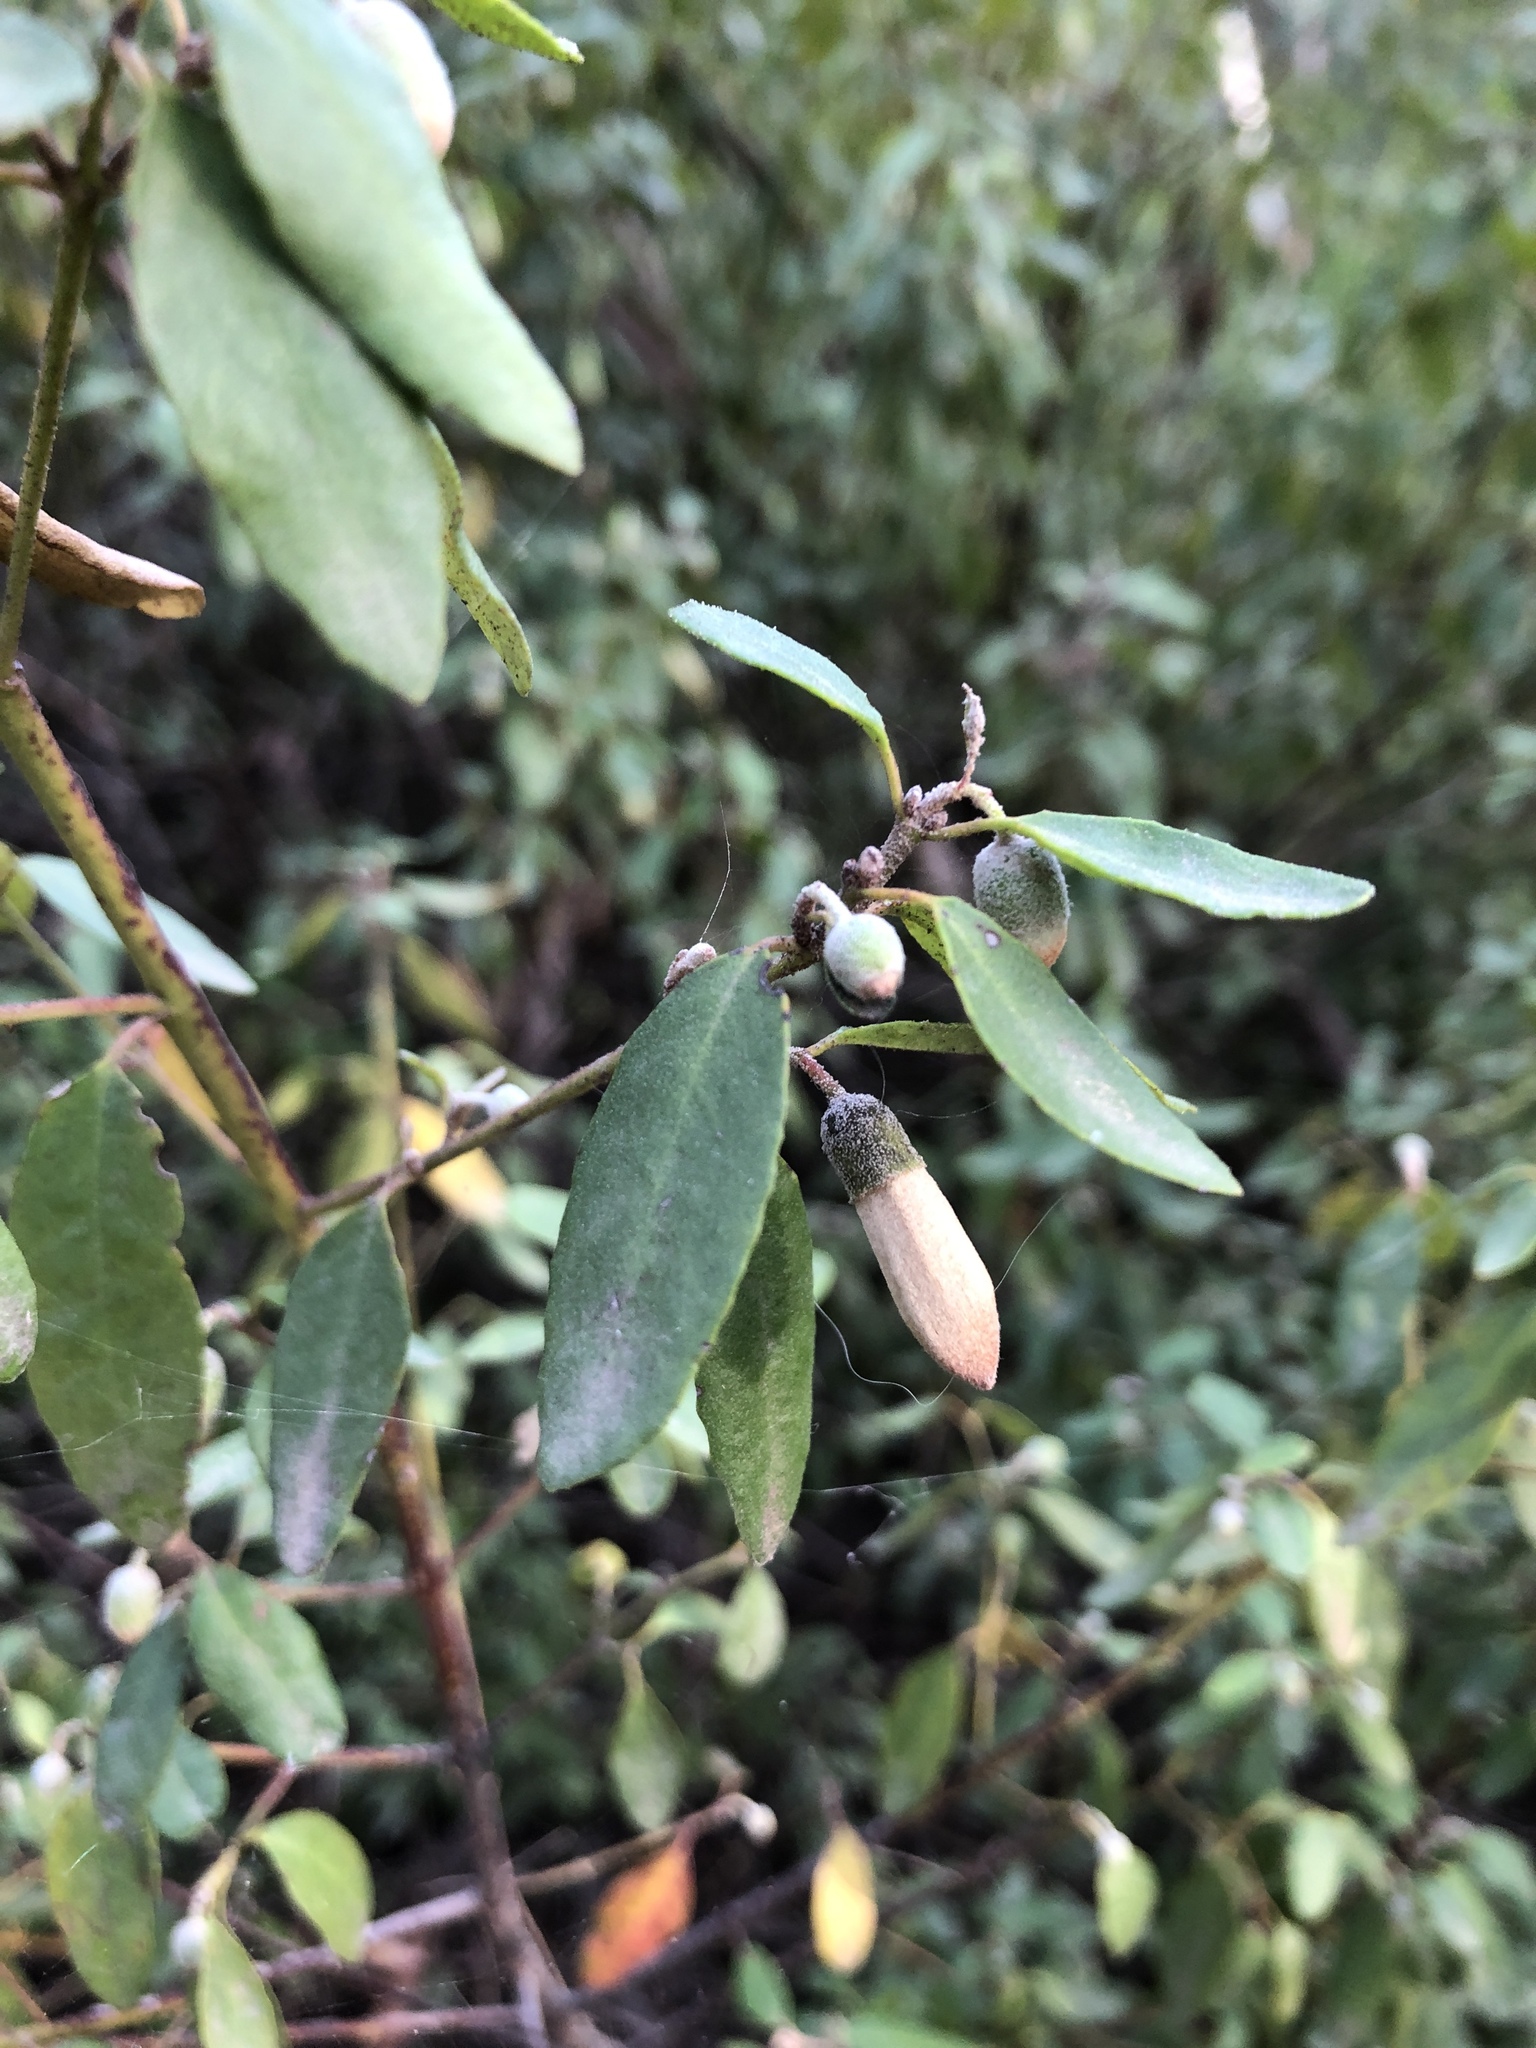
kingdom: Plantae
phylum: Tracheophyta
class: Magnoliopsida
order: Sapindales
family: Rutaceae
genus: Correa
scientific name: Correa glabra
